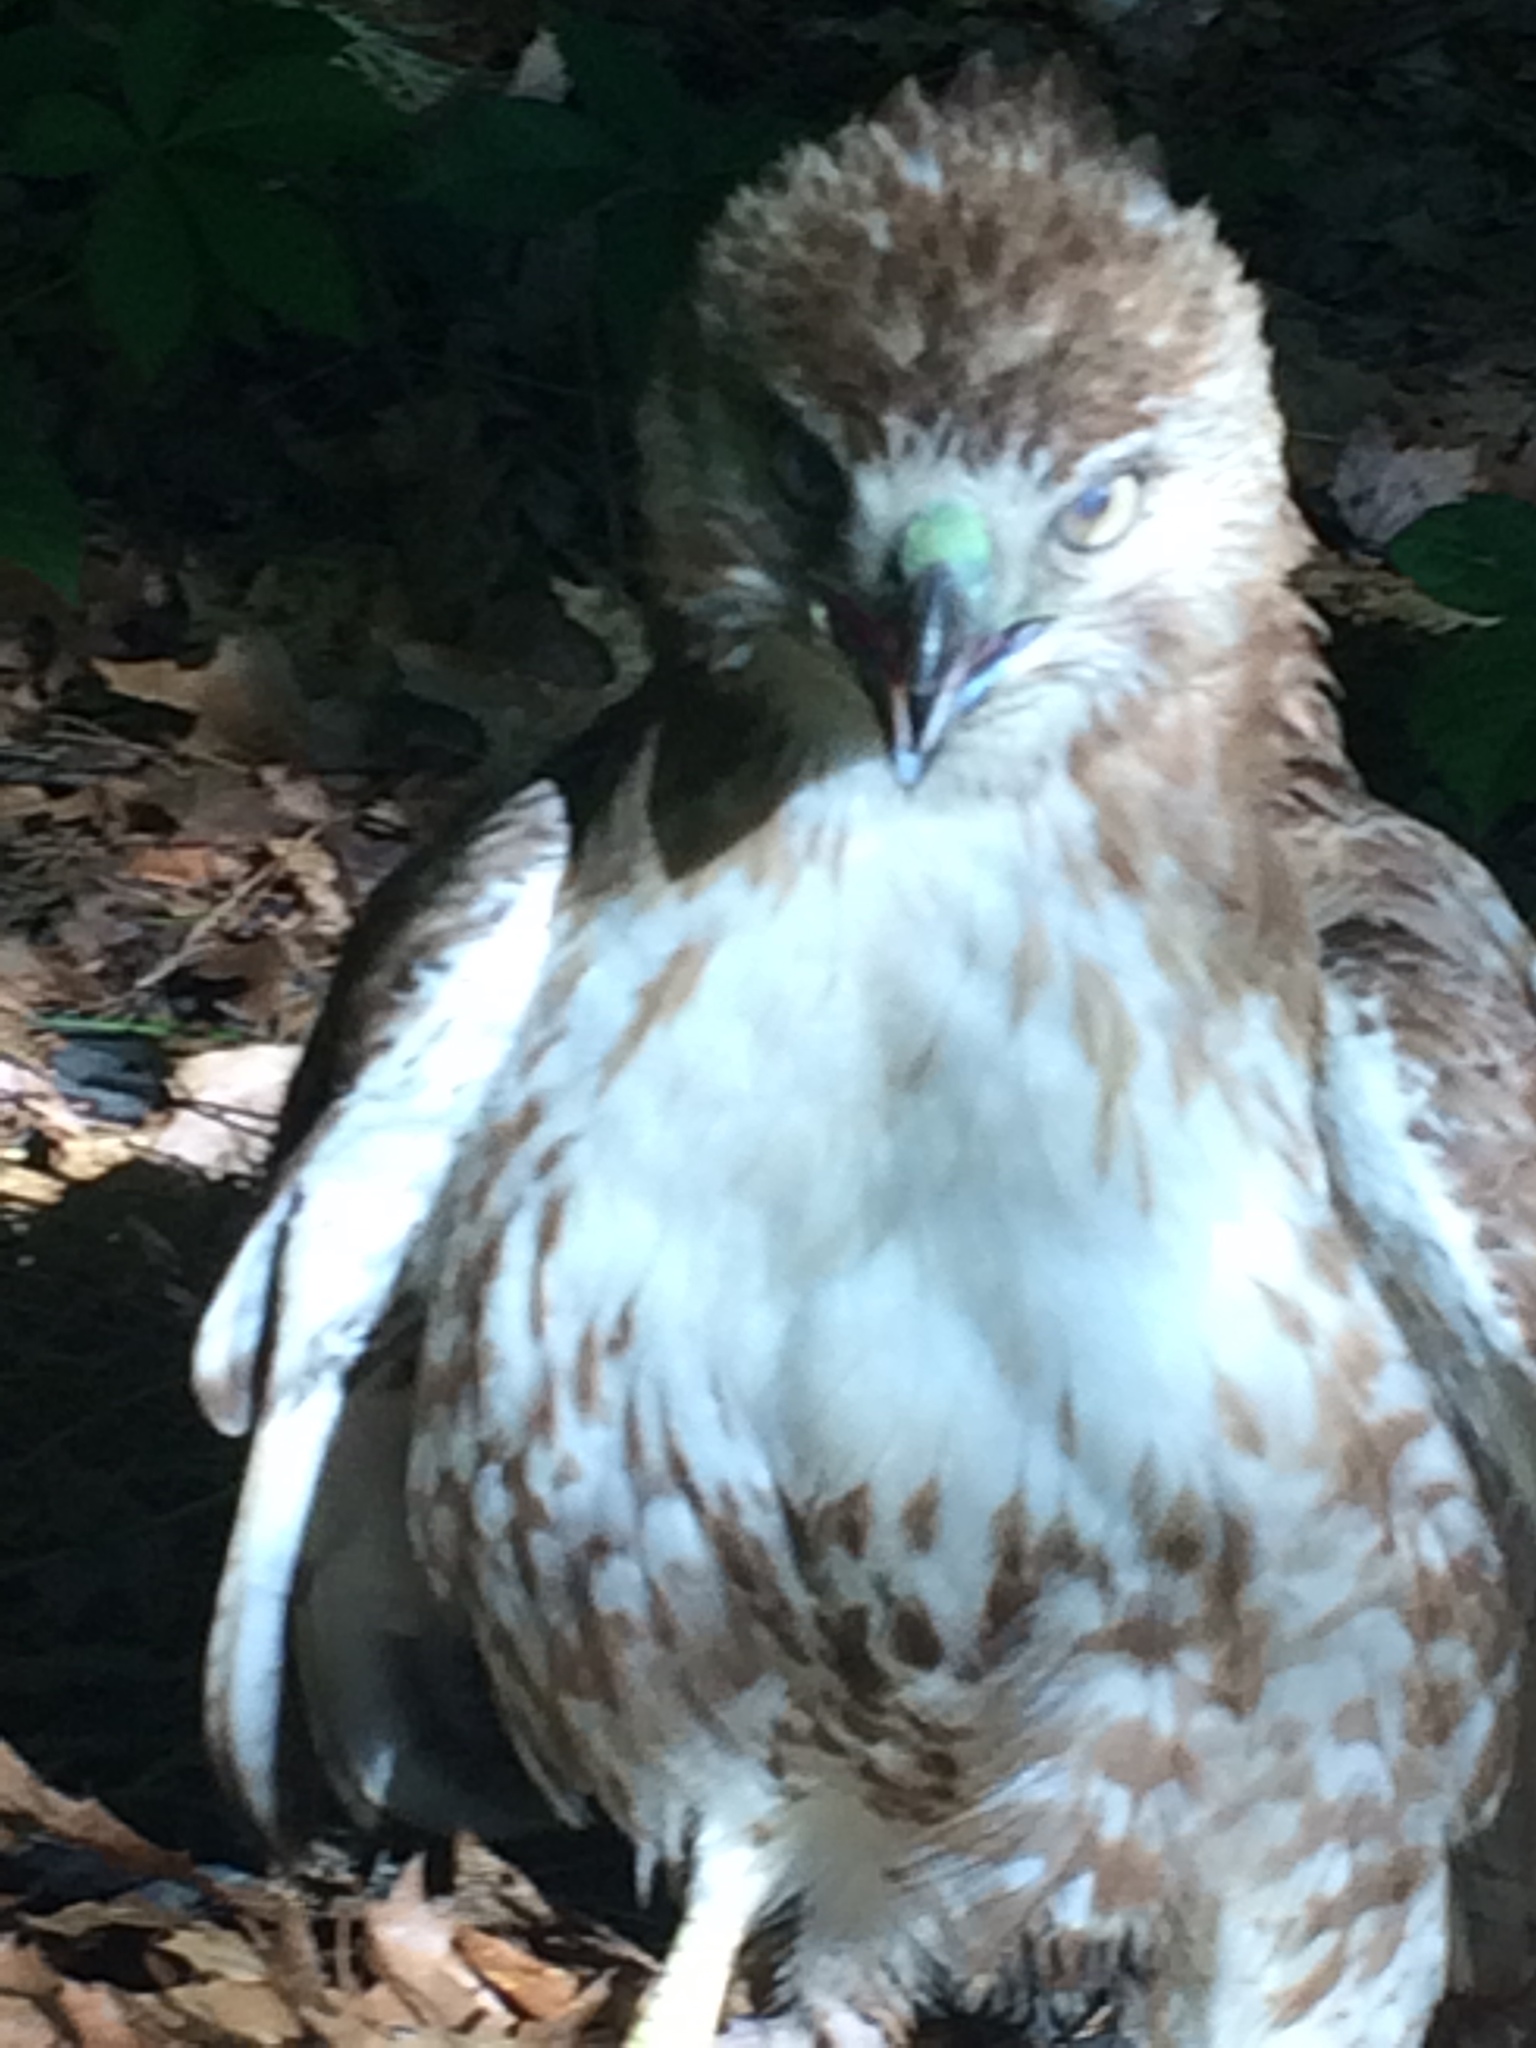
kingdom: Animalia
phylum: Chordata
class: Aves
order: Accipitriformes
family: Accipitridae
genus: Buteo
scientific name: Buteo jamaicensis
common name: Red-tailed hawk
